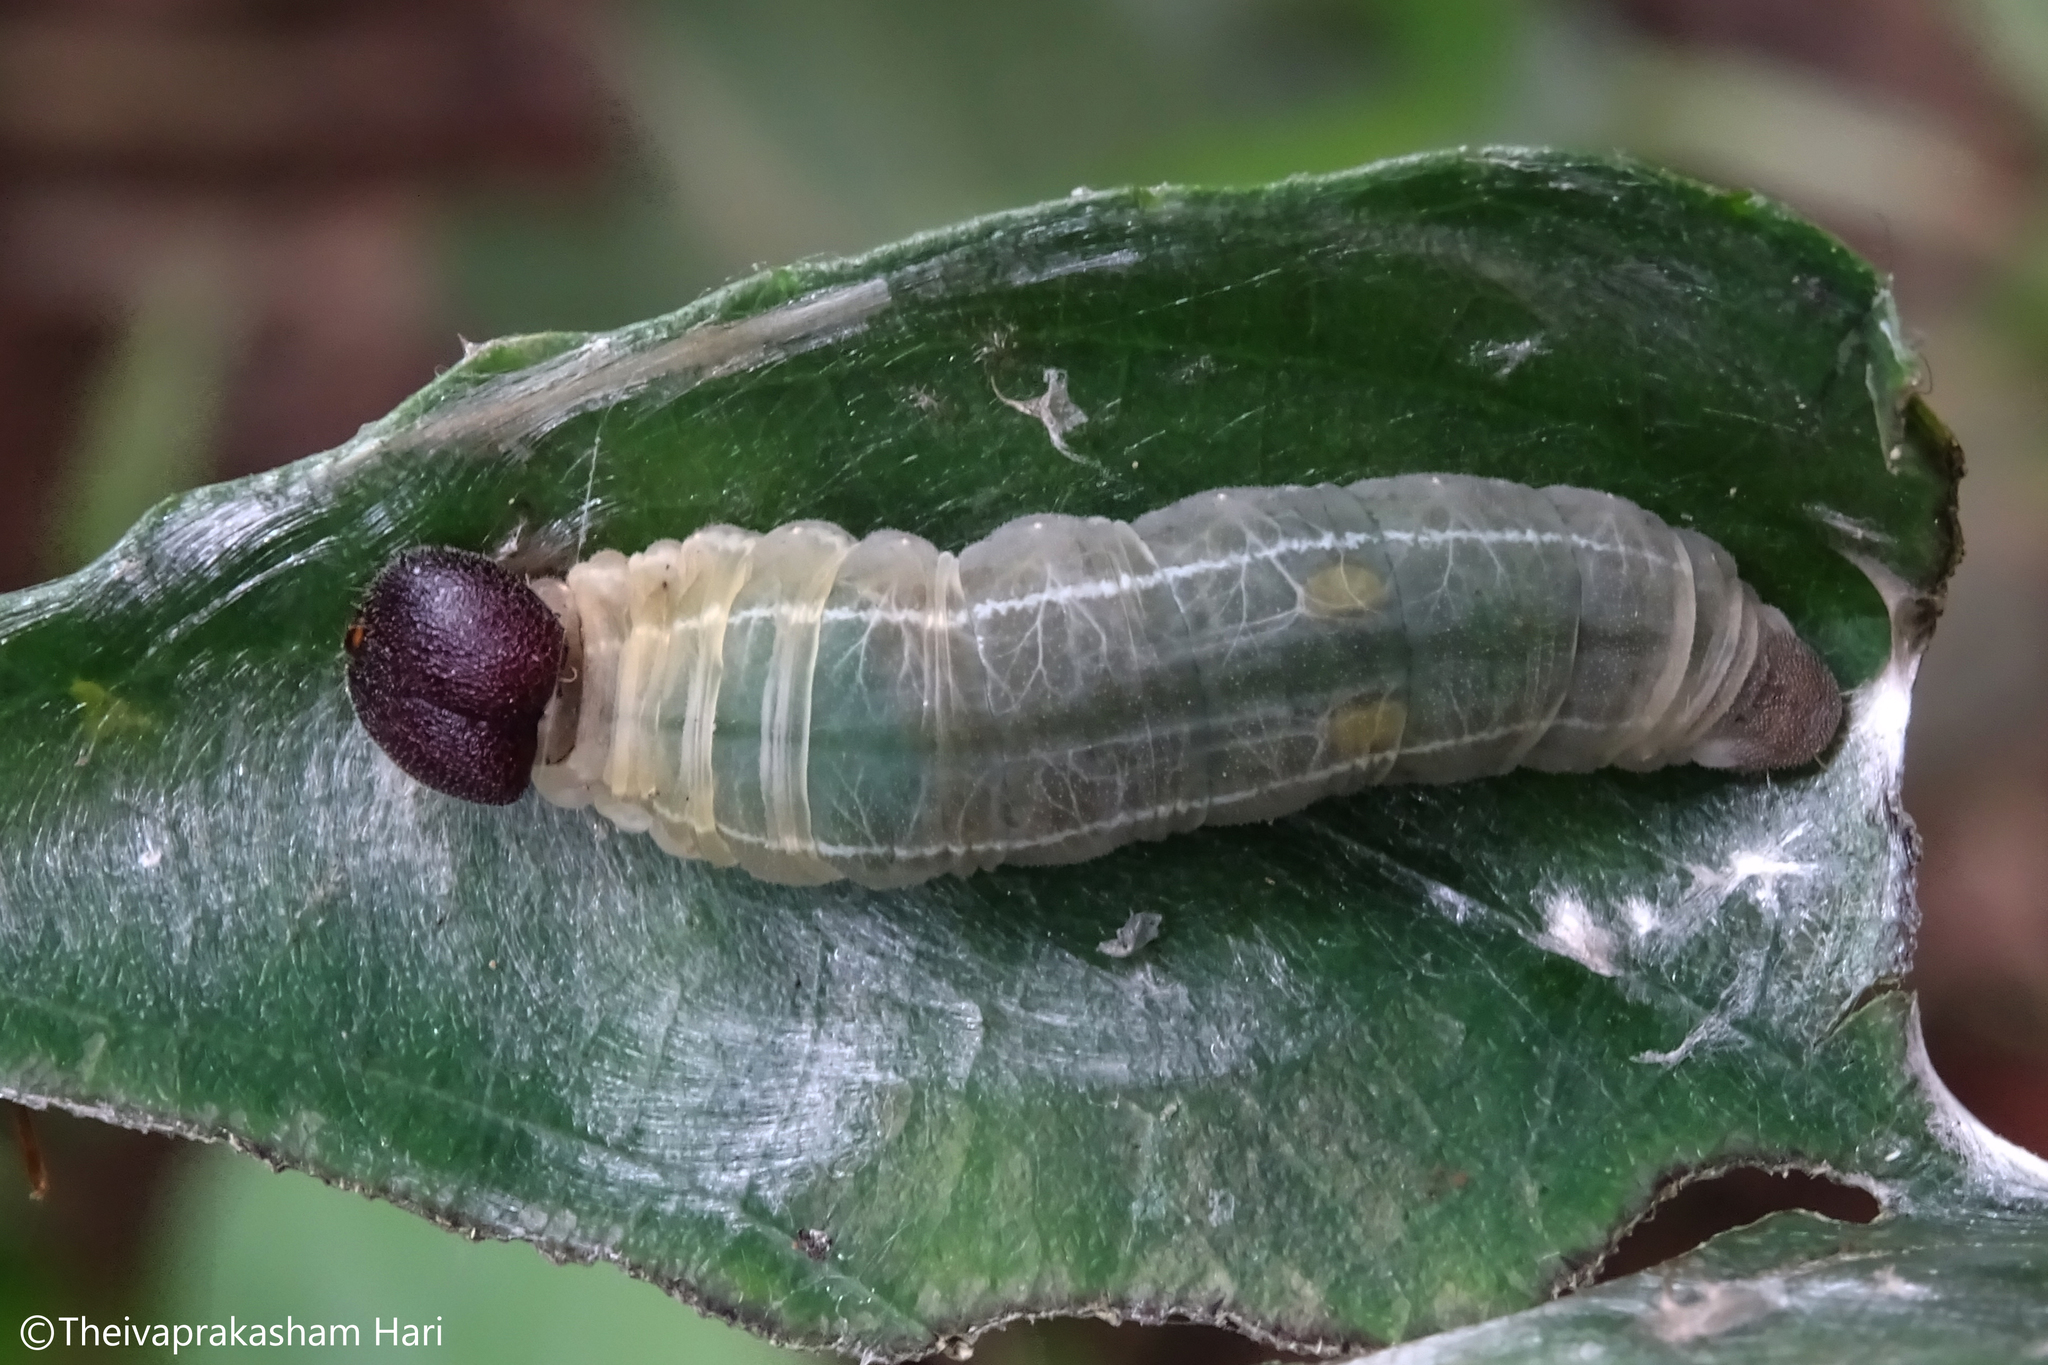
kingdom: Animalia
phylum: Arthropoda
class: Insecta
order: Lepidoptera
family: Hesperiidae
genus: Celaenorrhinus
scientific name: Celaenorrhinus leucocera
